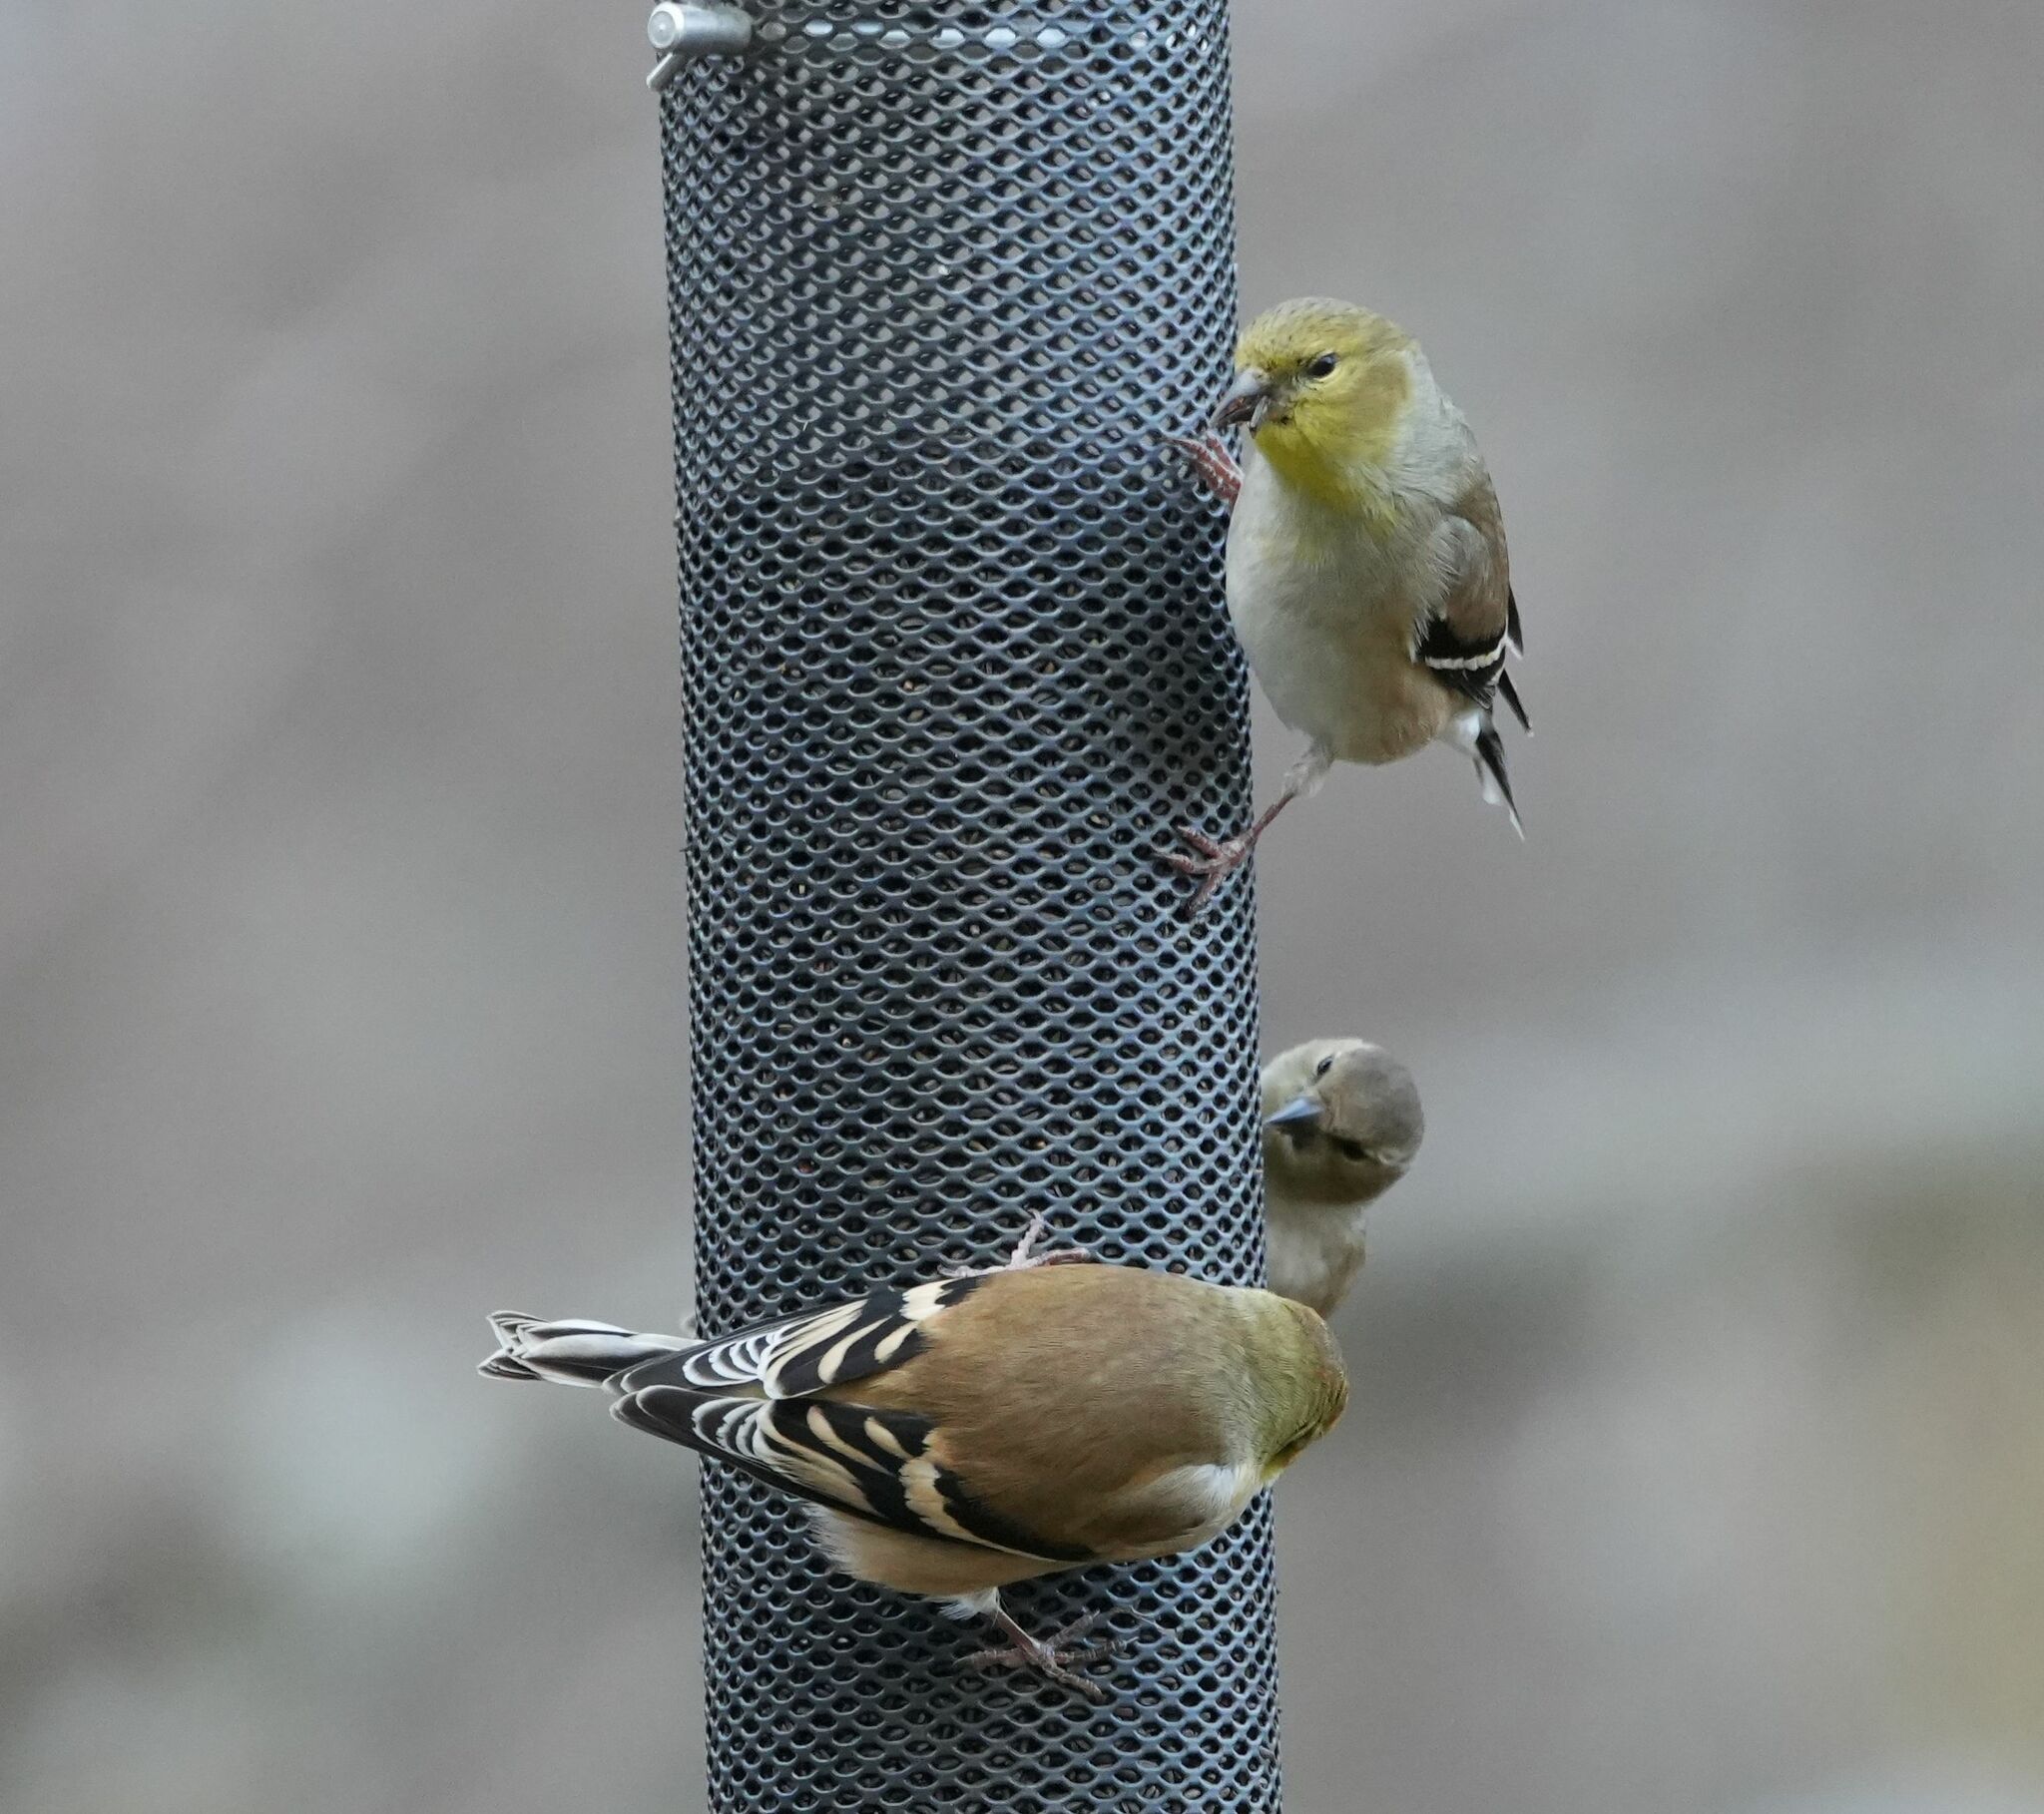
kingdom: Animalia
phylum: Chordata
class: Aves
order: Passeriformes
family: Fringillidae
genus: Spinus
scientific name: Spinus tristis
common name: American goldfinch
